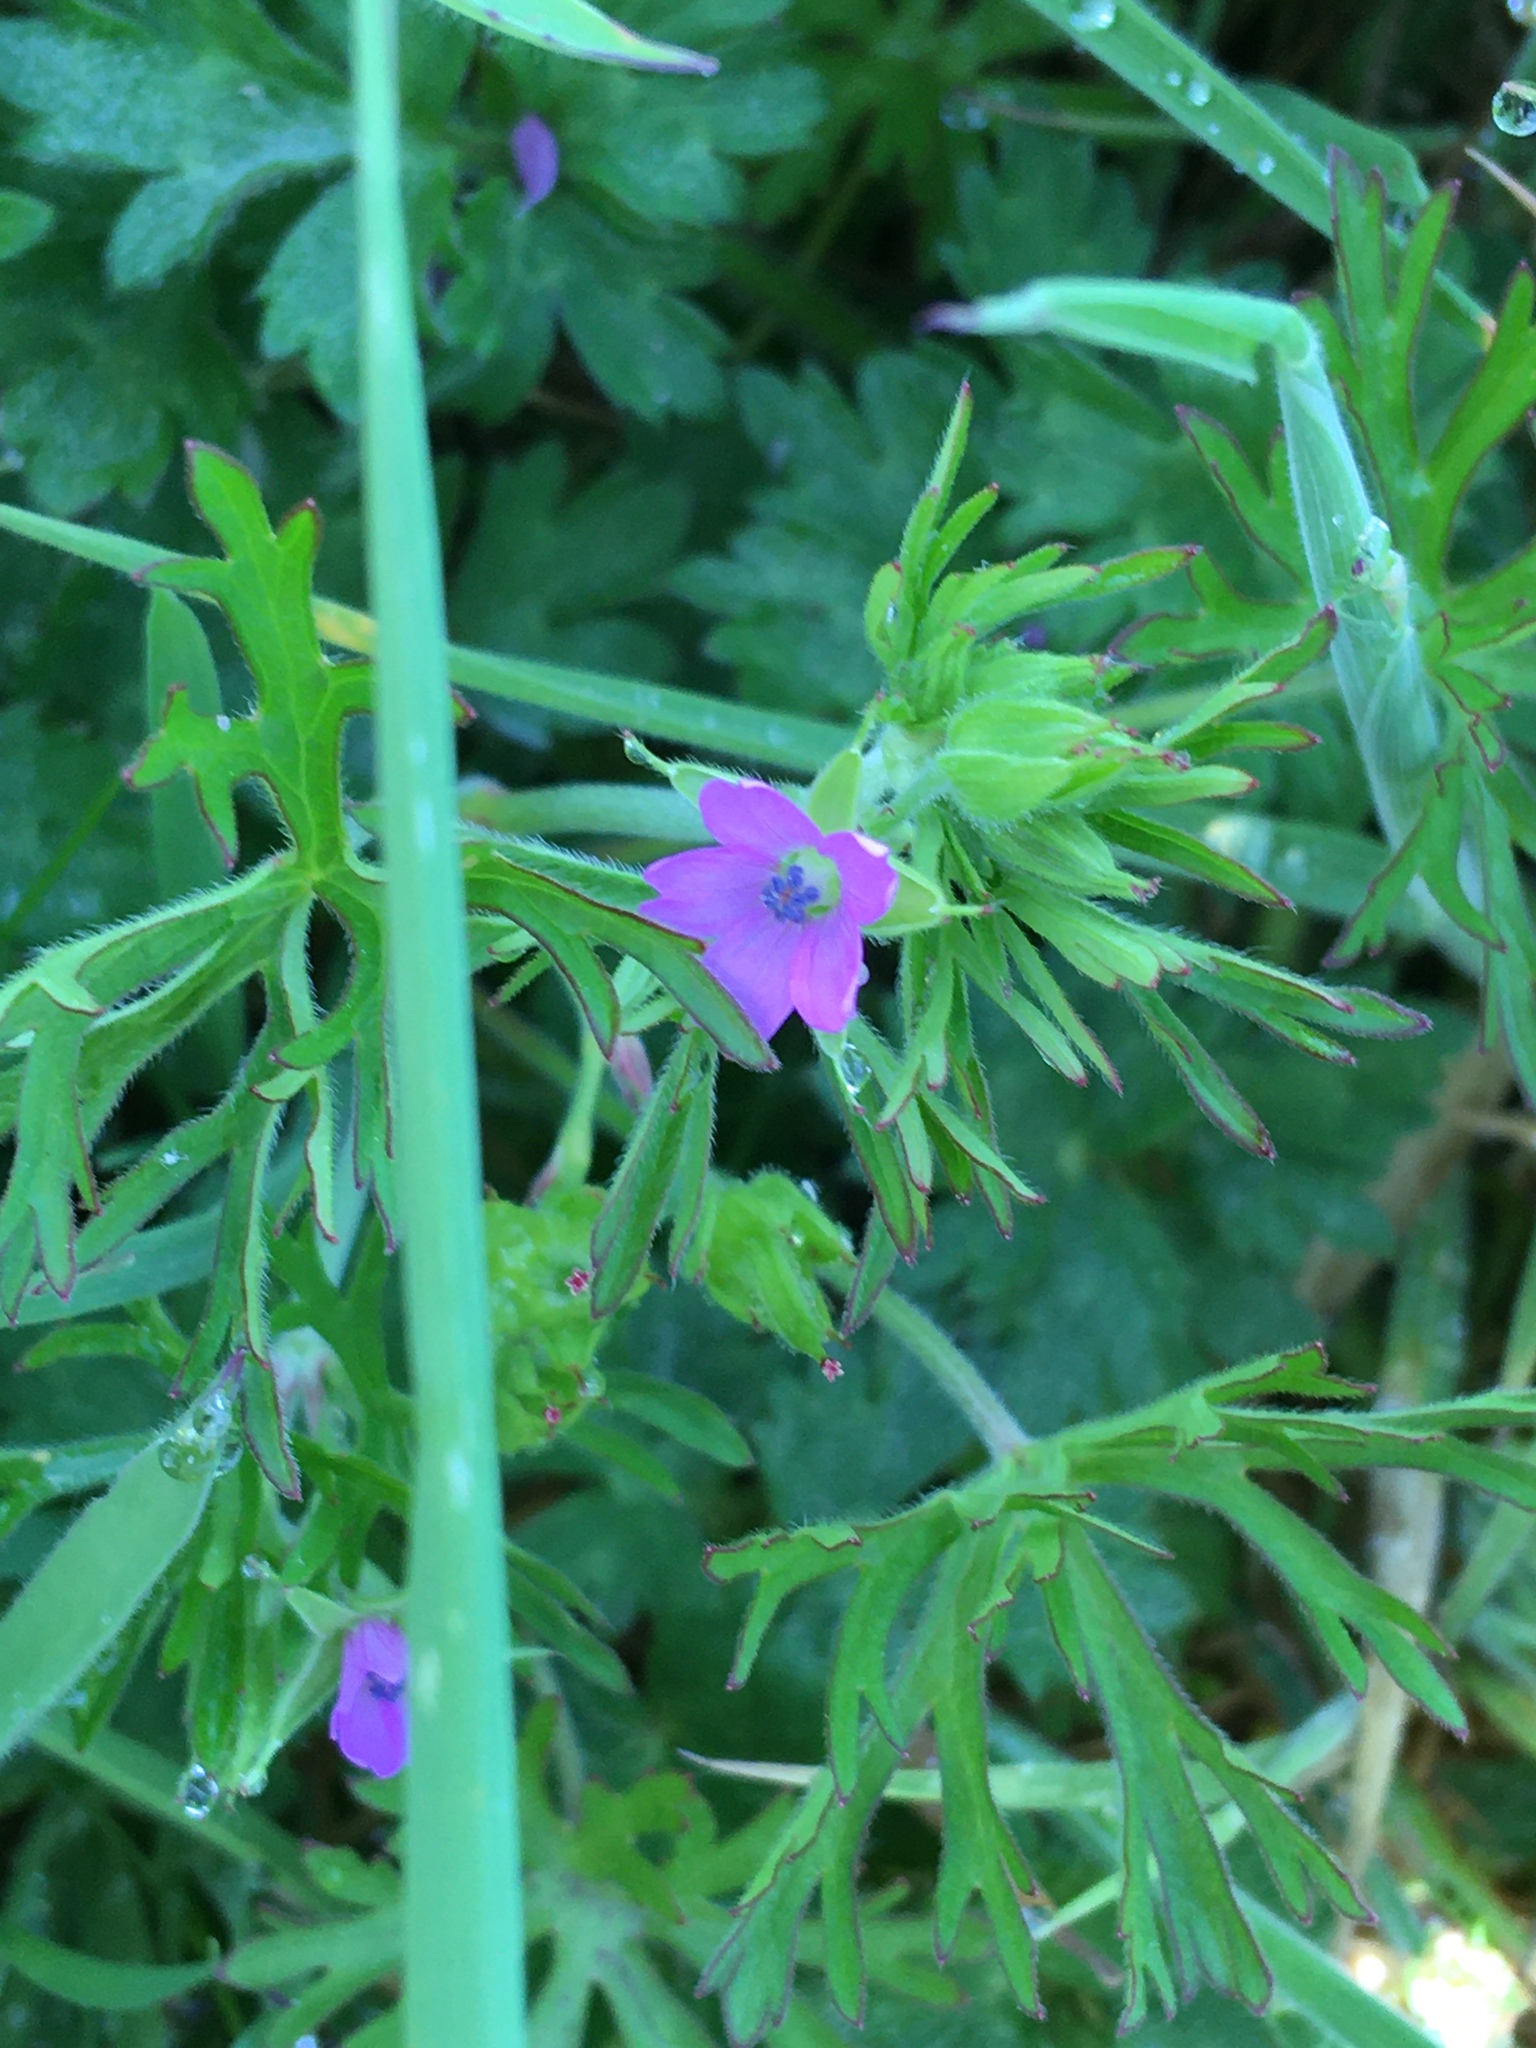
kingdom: Plantae
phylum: Tracheophyta
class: Magnoliopsida
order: Geraniales
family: Geraniaceae
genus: Geranium
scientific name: Geranium dissectum
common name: Cut-leaved crane's-bill
